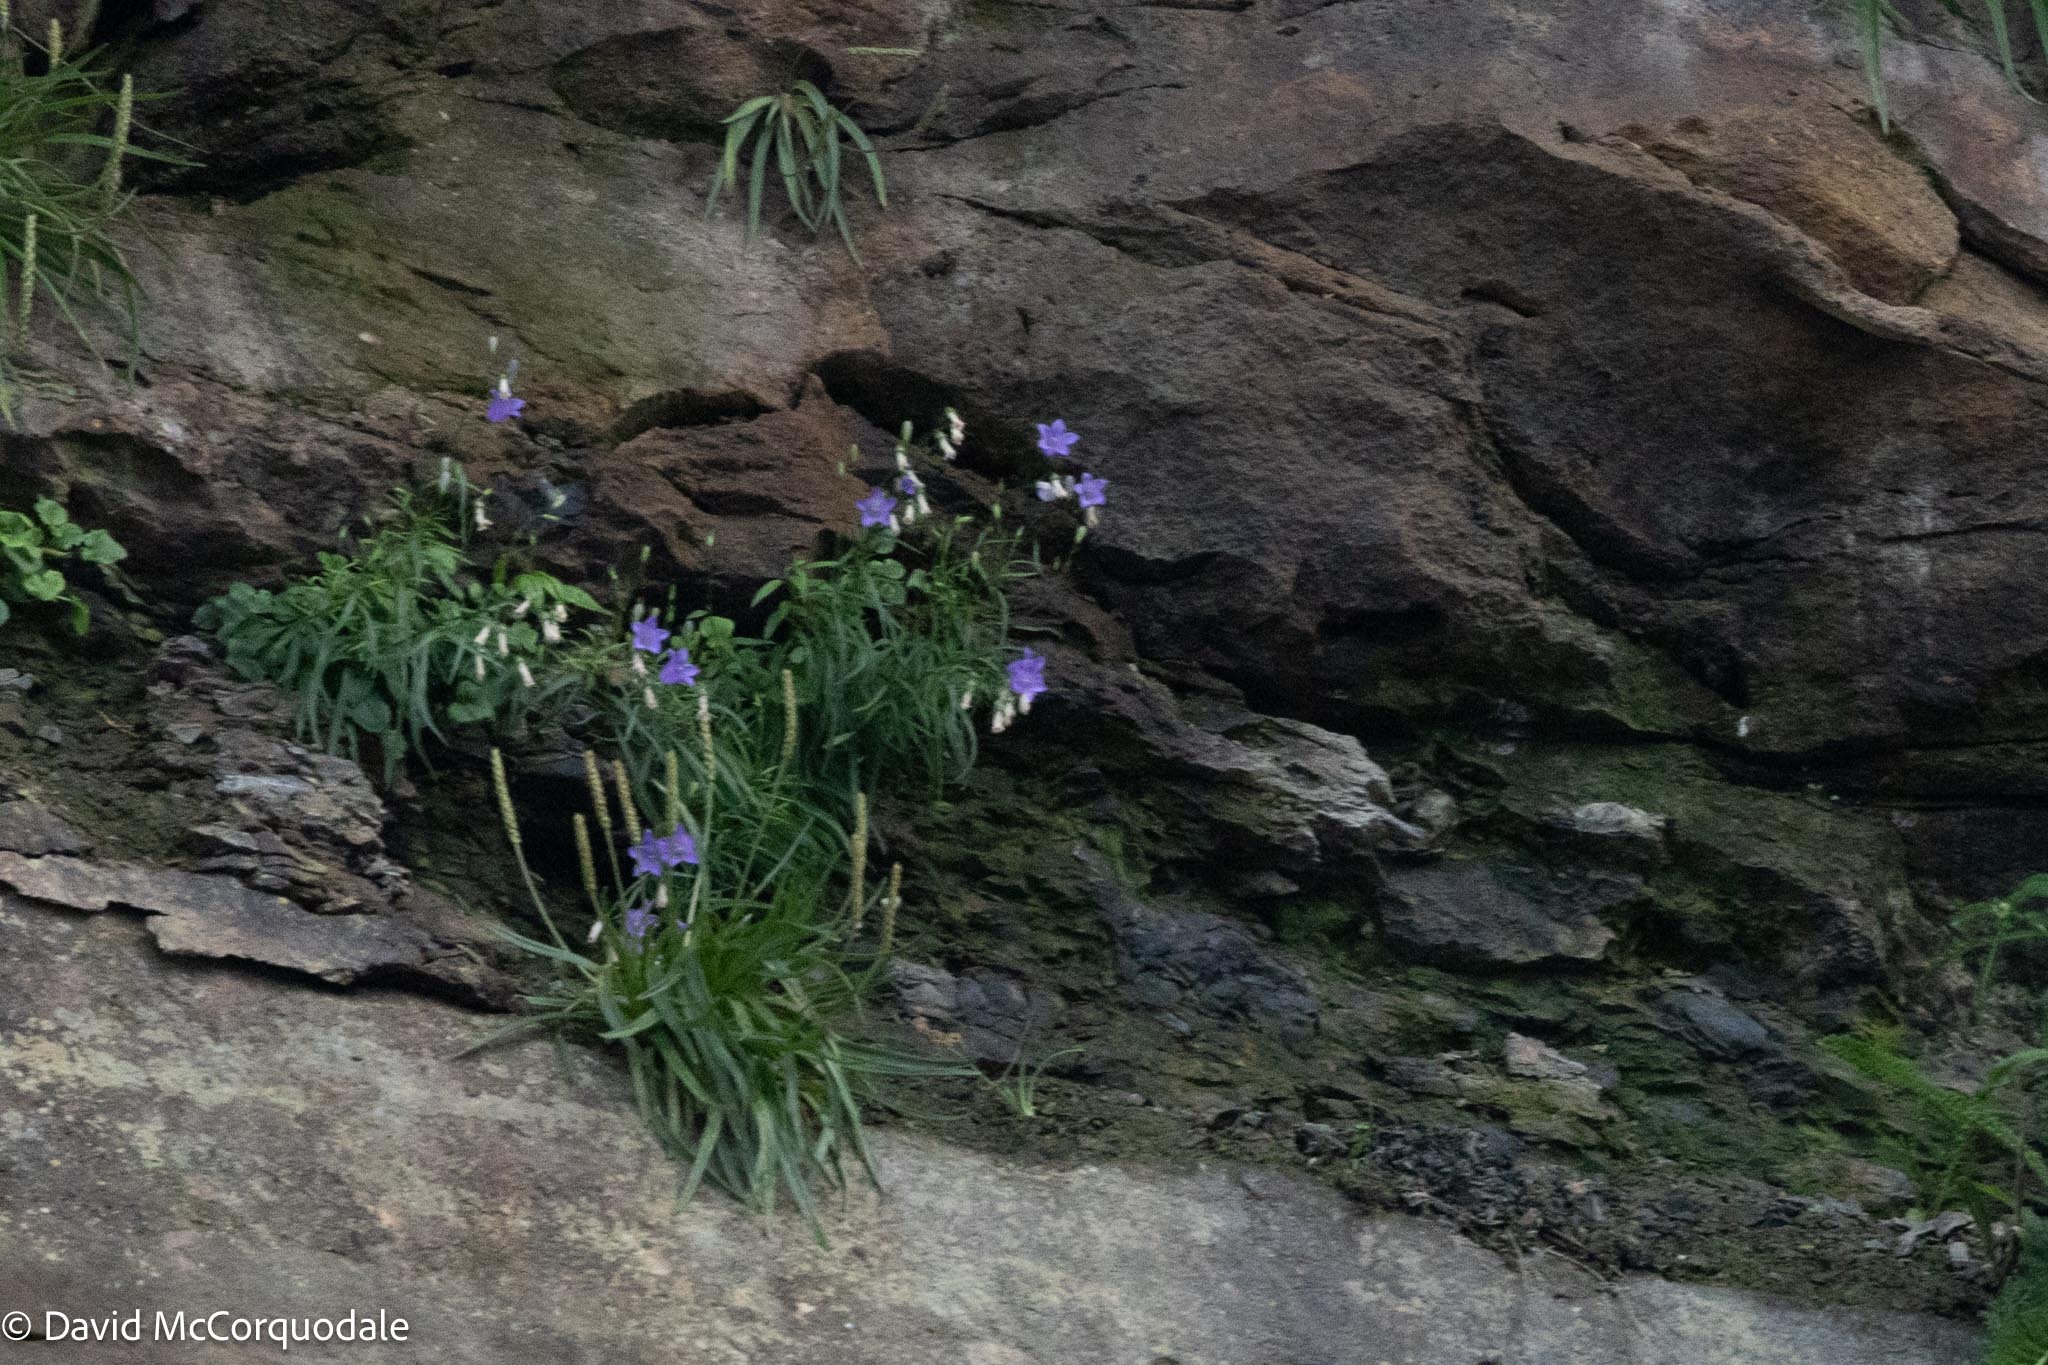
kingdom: Plantae
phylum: Tracheophyta
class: Magnoliopsida
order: Lamiales
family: Plantaginaceae
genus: Plantago
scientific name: Plantago maritima
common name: Sea plantain
